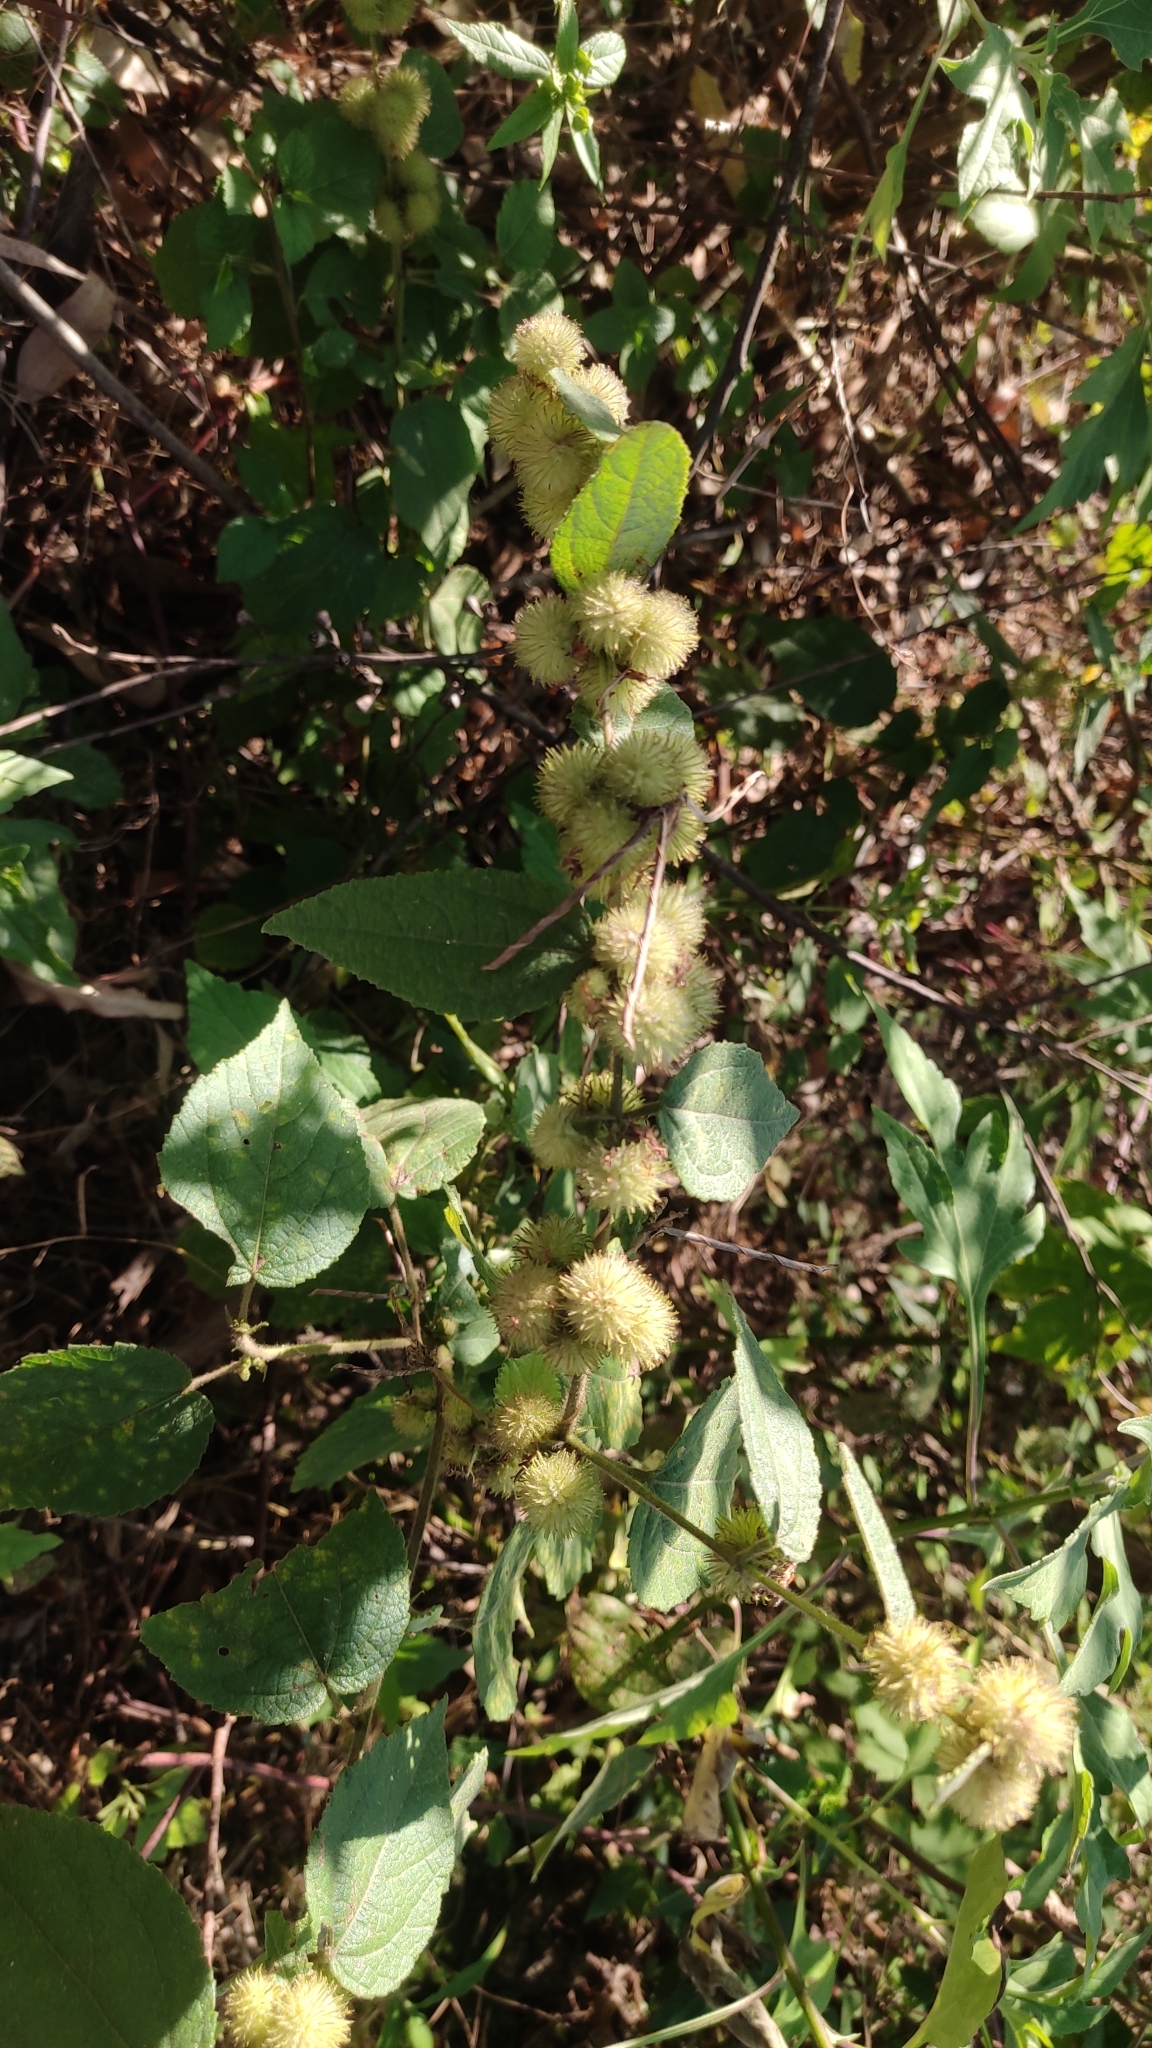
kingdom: Plantae
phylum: Tracheophyta
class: Magnoliopsida
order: Malvales
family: Malvaceae
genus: Triumfetta
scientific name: Triumfetta pilosa
